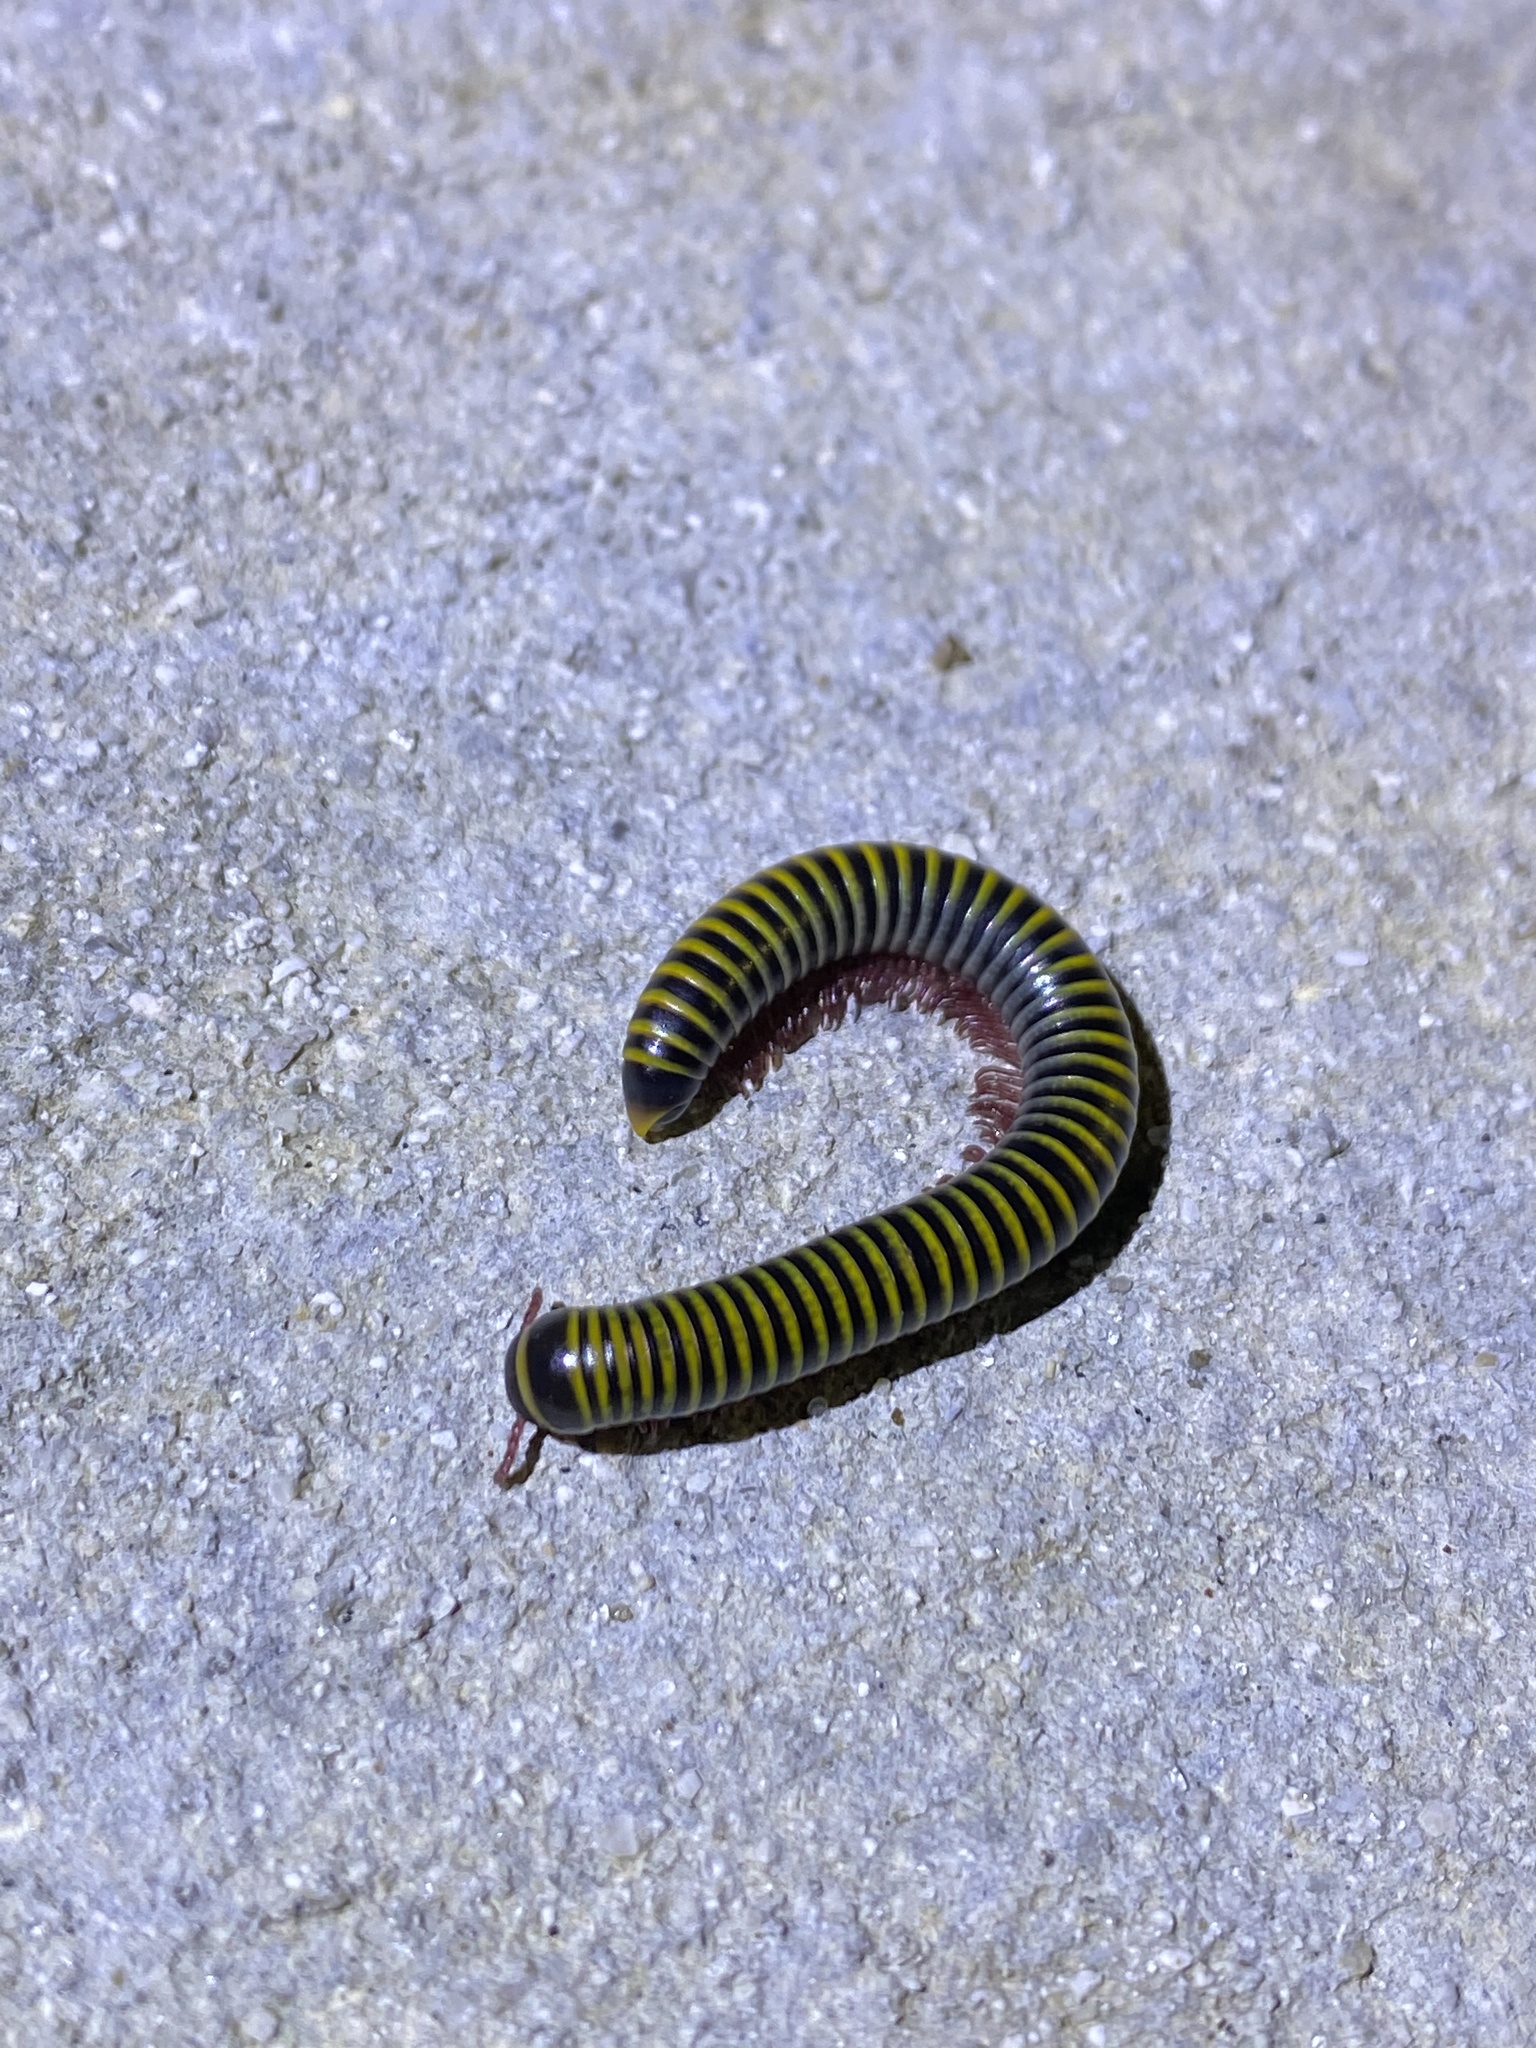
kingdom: Animalia
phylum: Arthropoda
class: Diplopoda
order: Spirobolida
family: Rhinocricidae
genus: Anadenobolus
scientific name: Anadenobolus monilicornis
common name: Caribbean millipede
